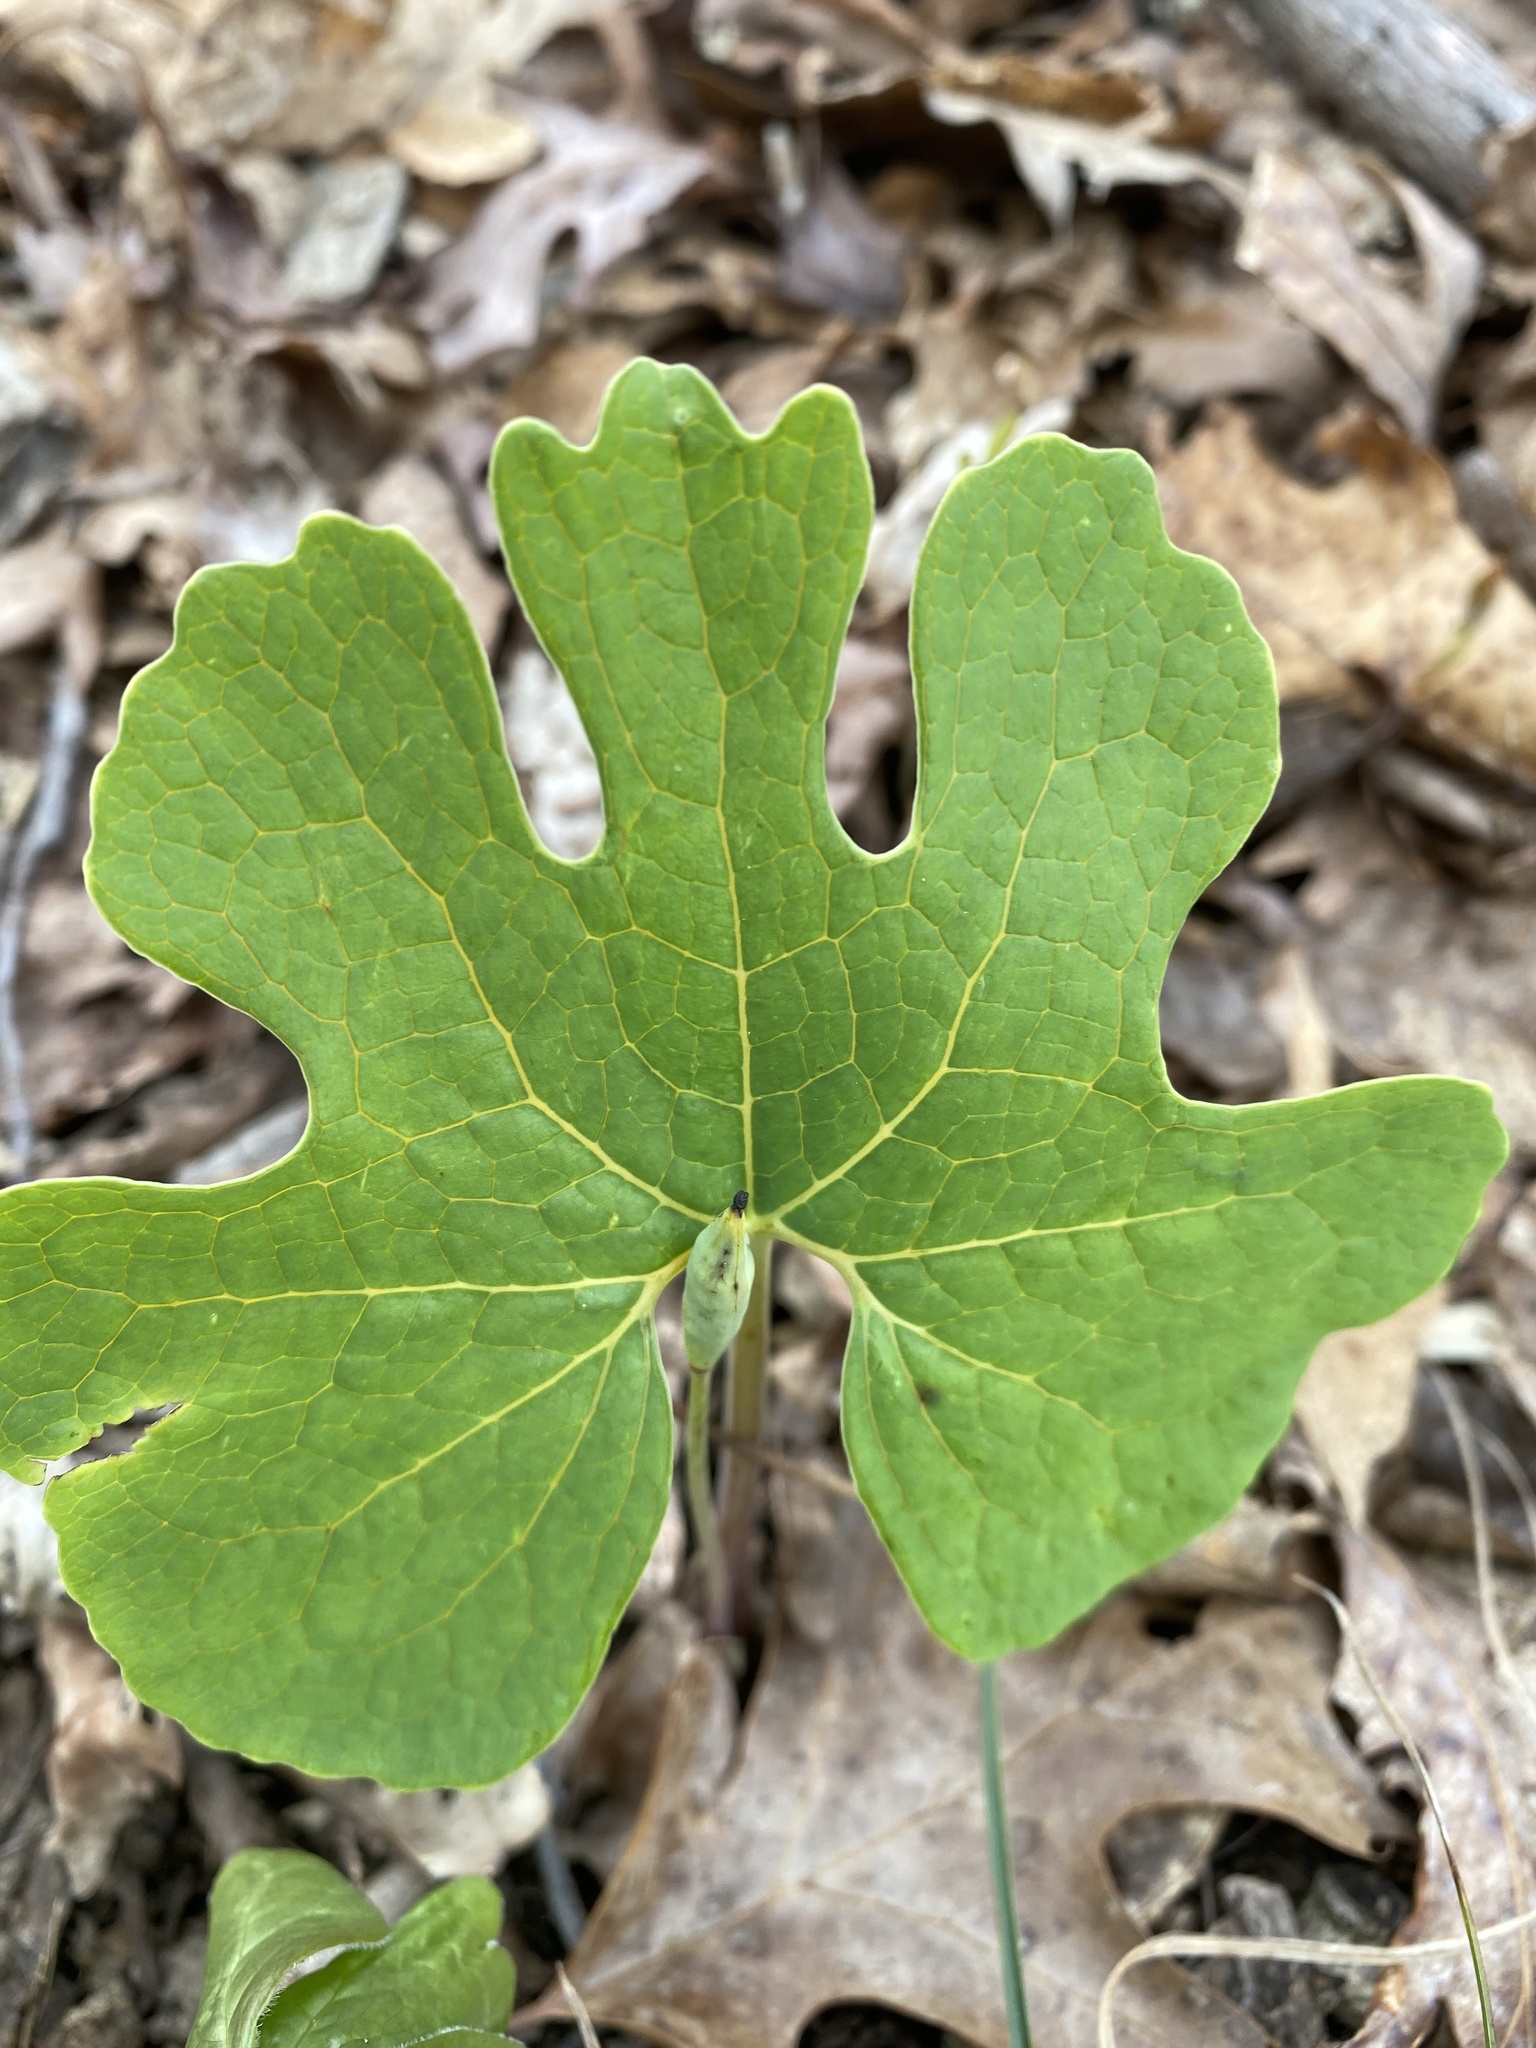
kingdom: Plantae
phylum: Tracheophyta
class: Magnoliopsida
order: Ranunculales
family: Papaveraceae
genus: Sanguinaria
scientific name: Sanguinaria canadensis
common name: Bloodroot
